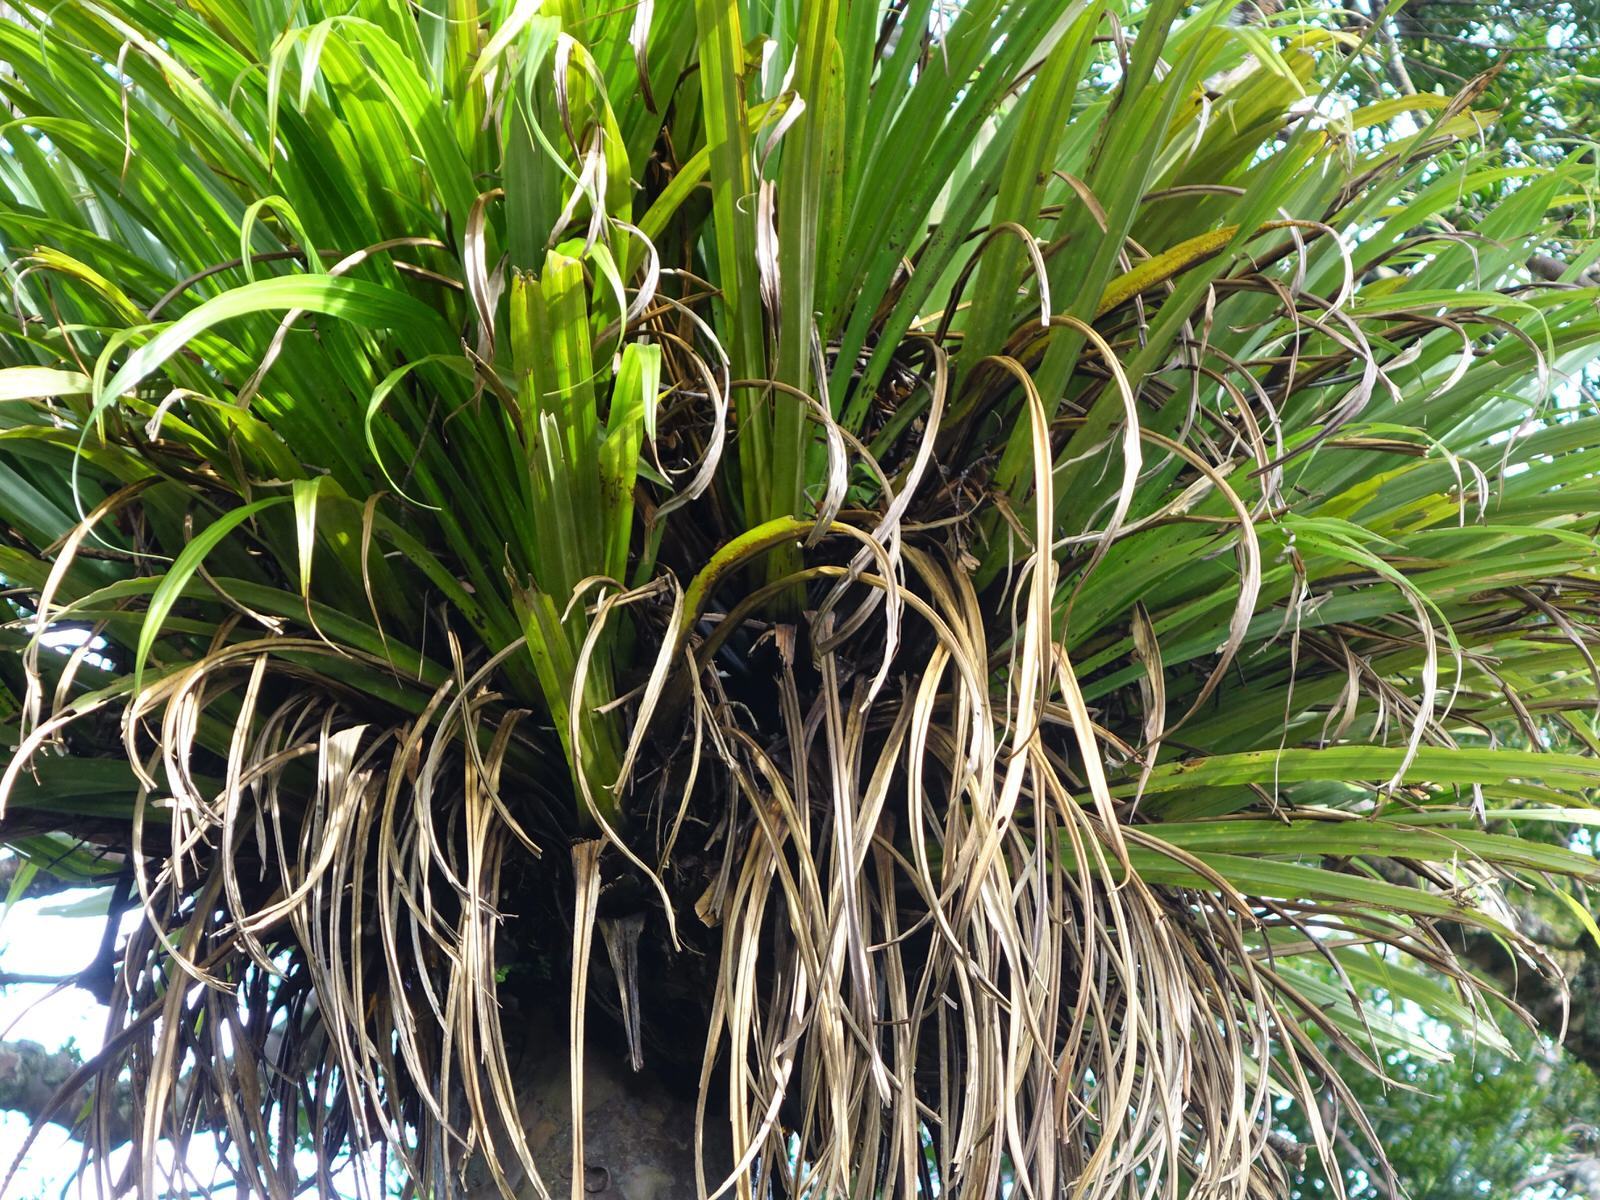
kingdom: Plantae
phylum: Tracheophyta
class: Liliopsida
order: Asparagales
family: Asteliaceae
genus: Astelia
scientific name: Astelia hastata
